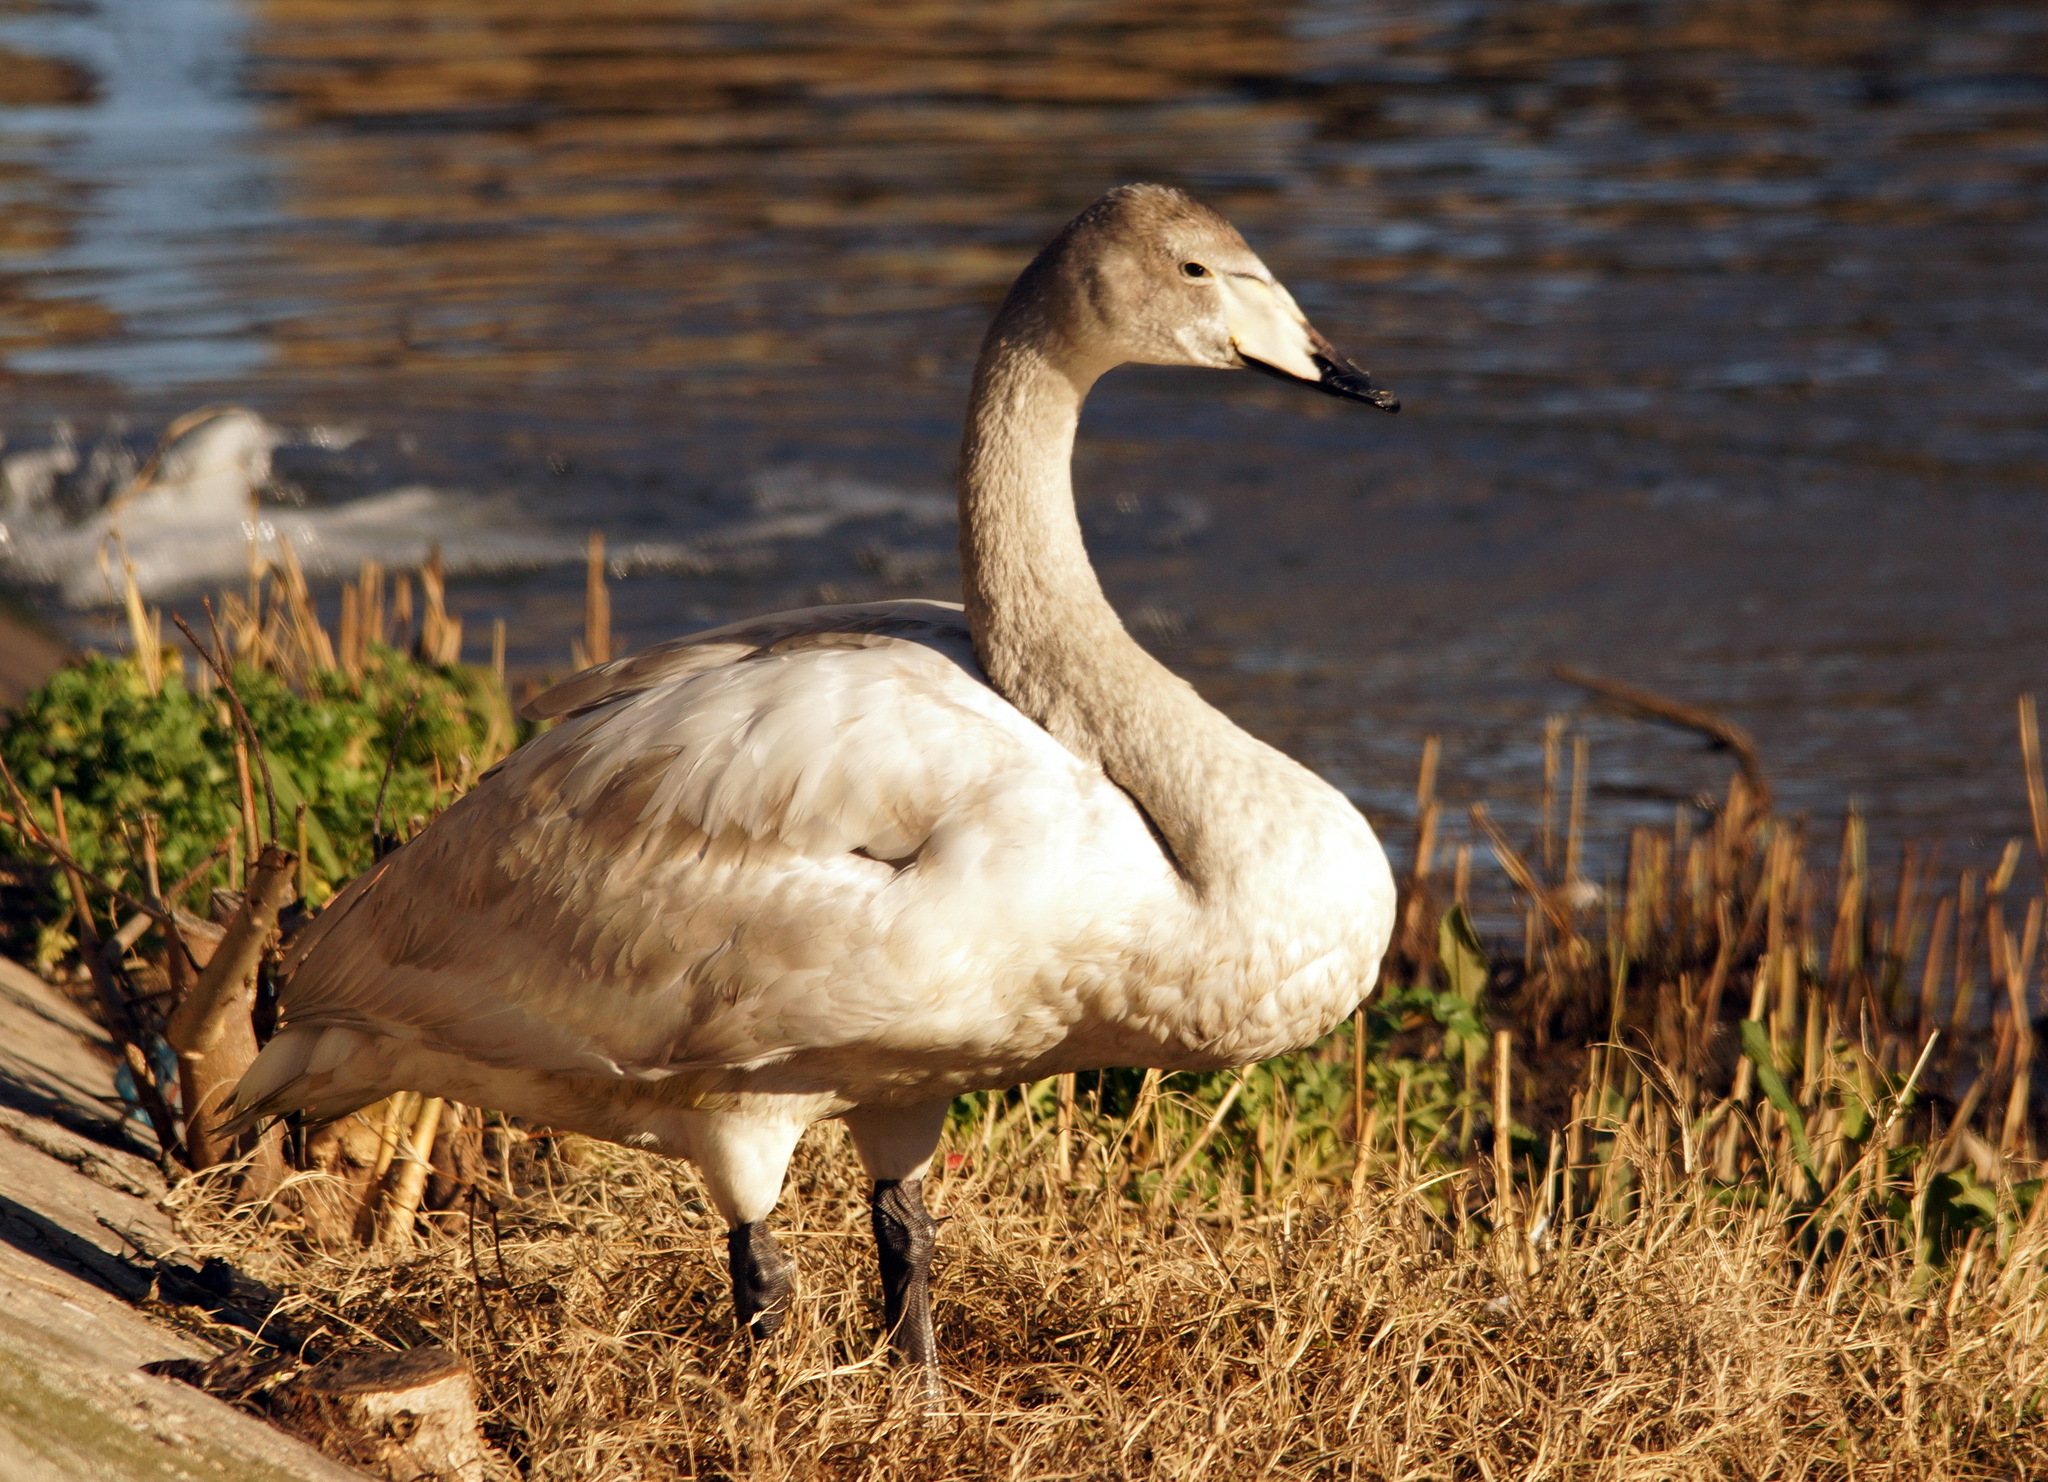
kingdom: Animalia
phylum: Chordata
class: Aves
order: Anseriformes
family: Anatidae
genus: Cygnus
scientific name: Cygnus cygnus
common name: Whooper swan
